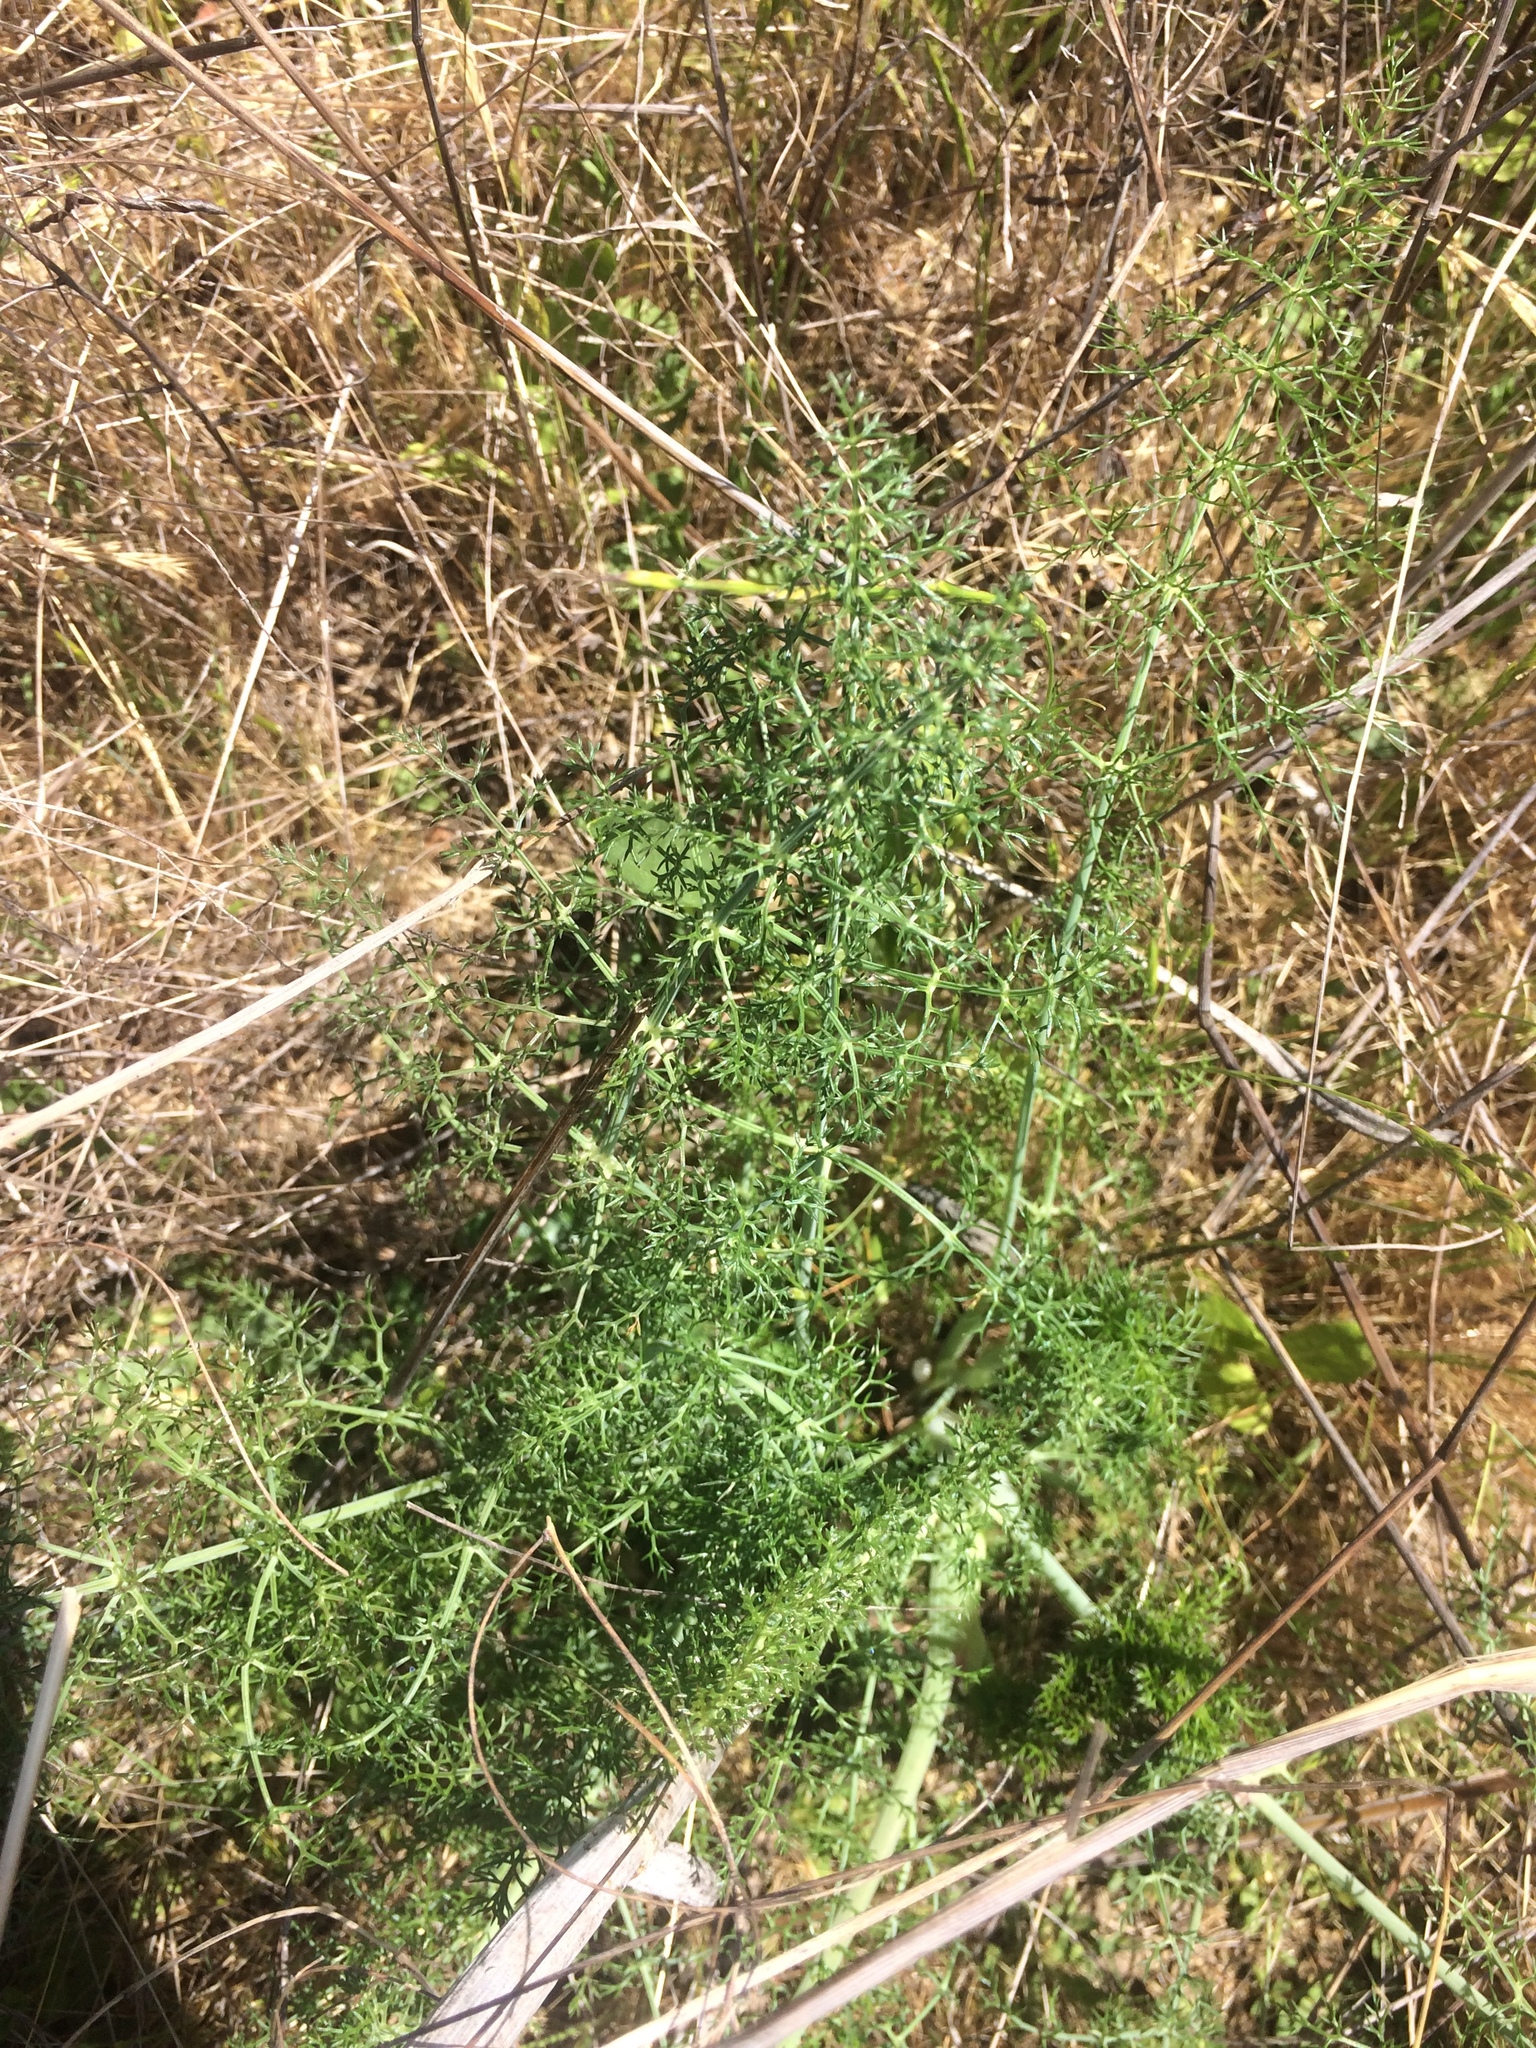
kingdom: Plantae
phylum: Tracheophyta
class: Magnoliopsida
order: Apiales
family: Apiaceae
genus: Foeniculum
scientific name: Foeniculum vulgare
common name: Fennel
